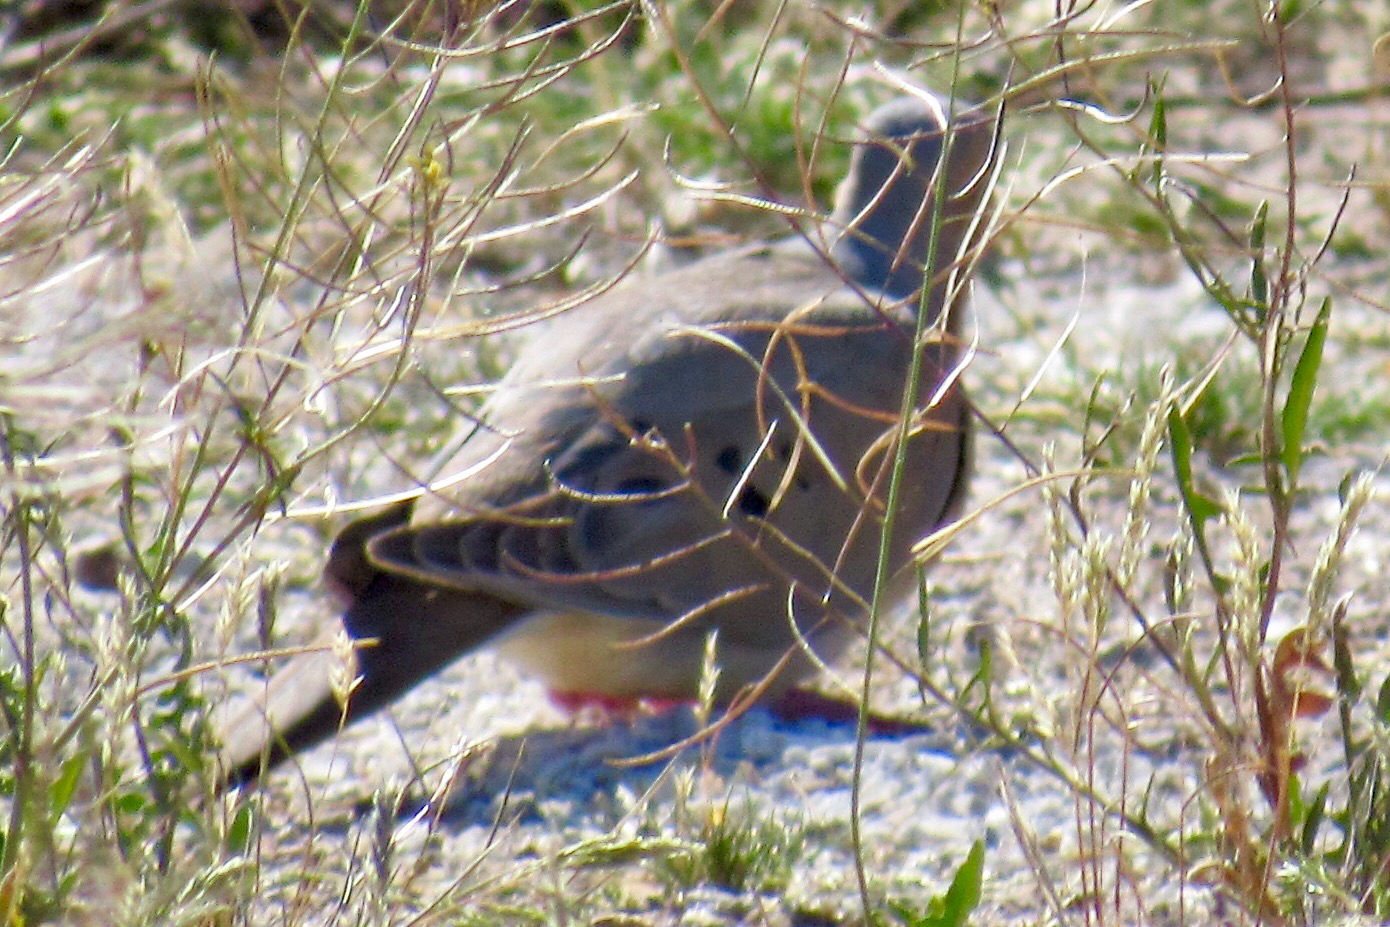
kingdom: Animalia
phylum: Chordata
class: Aves
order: Columbiformes
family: Columbidae
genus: Zenaida
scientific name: Zenaida macroura
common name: Mourning dove
